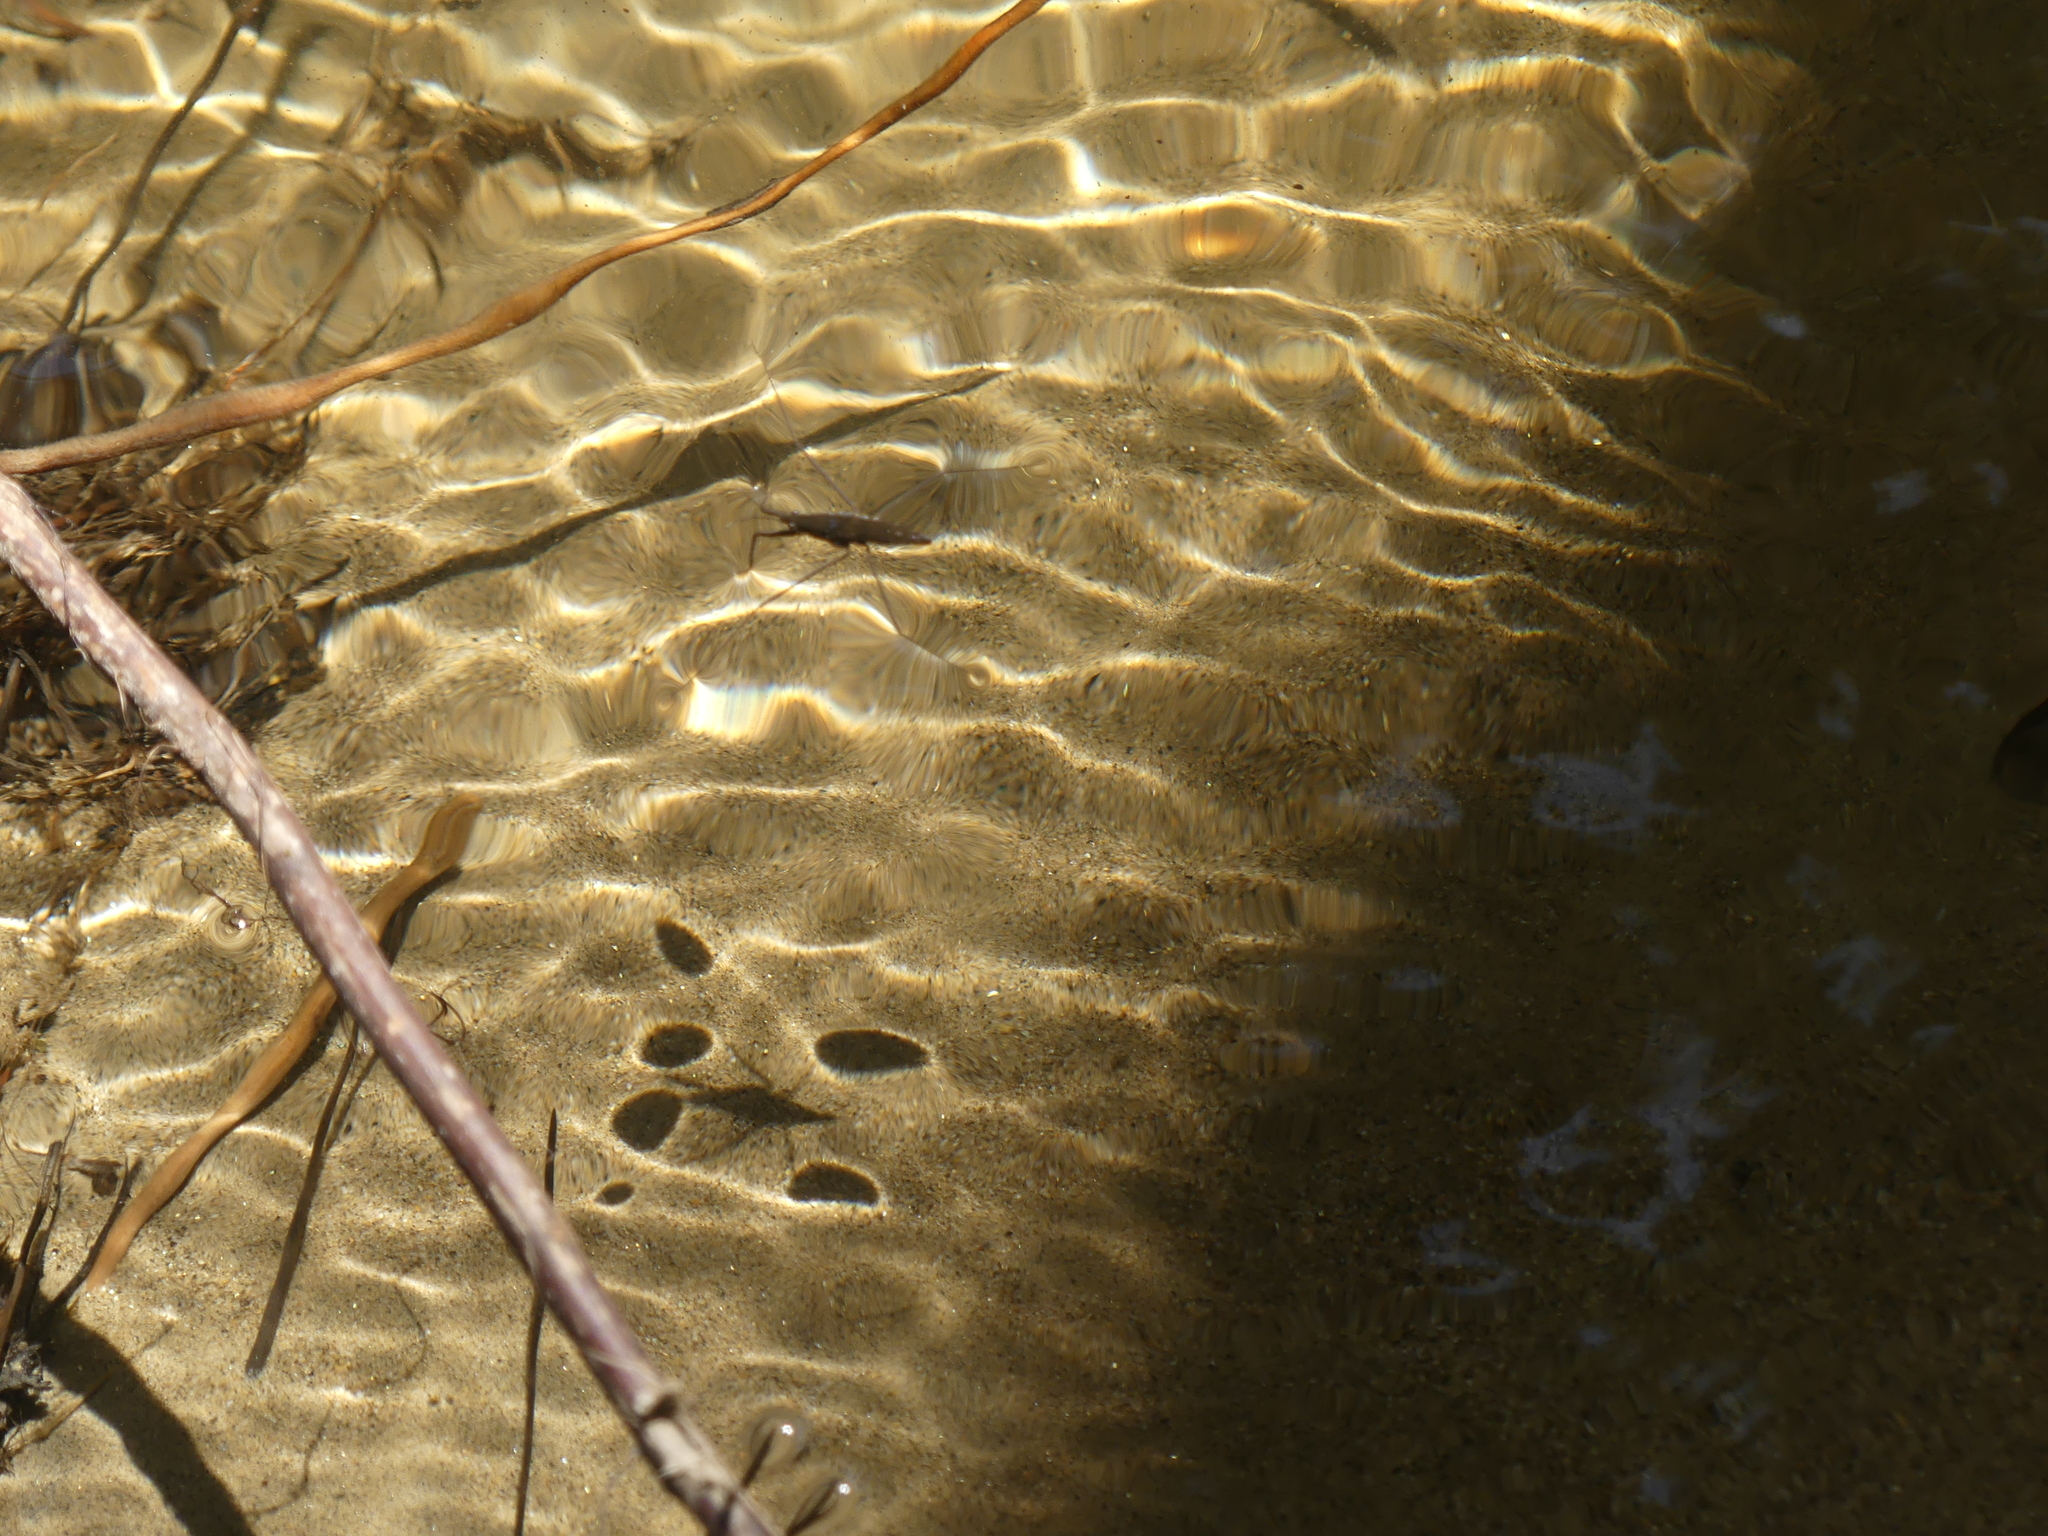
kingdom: Animalia
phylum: Arthropoda
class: Insecta
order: Hemiptera
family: Gerridae
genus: Aquarius
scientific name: Aquarius remigis
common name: Common water strider
